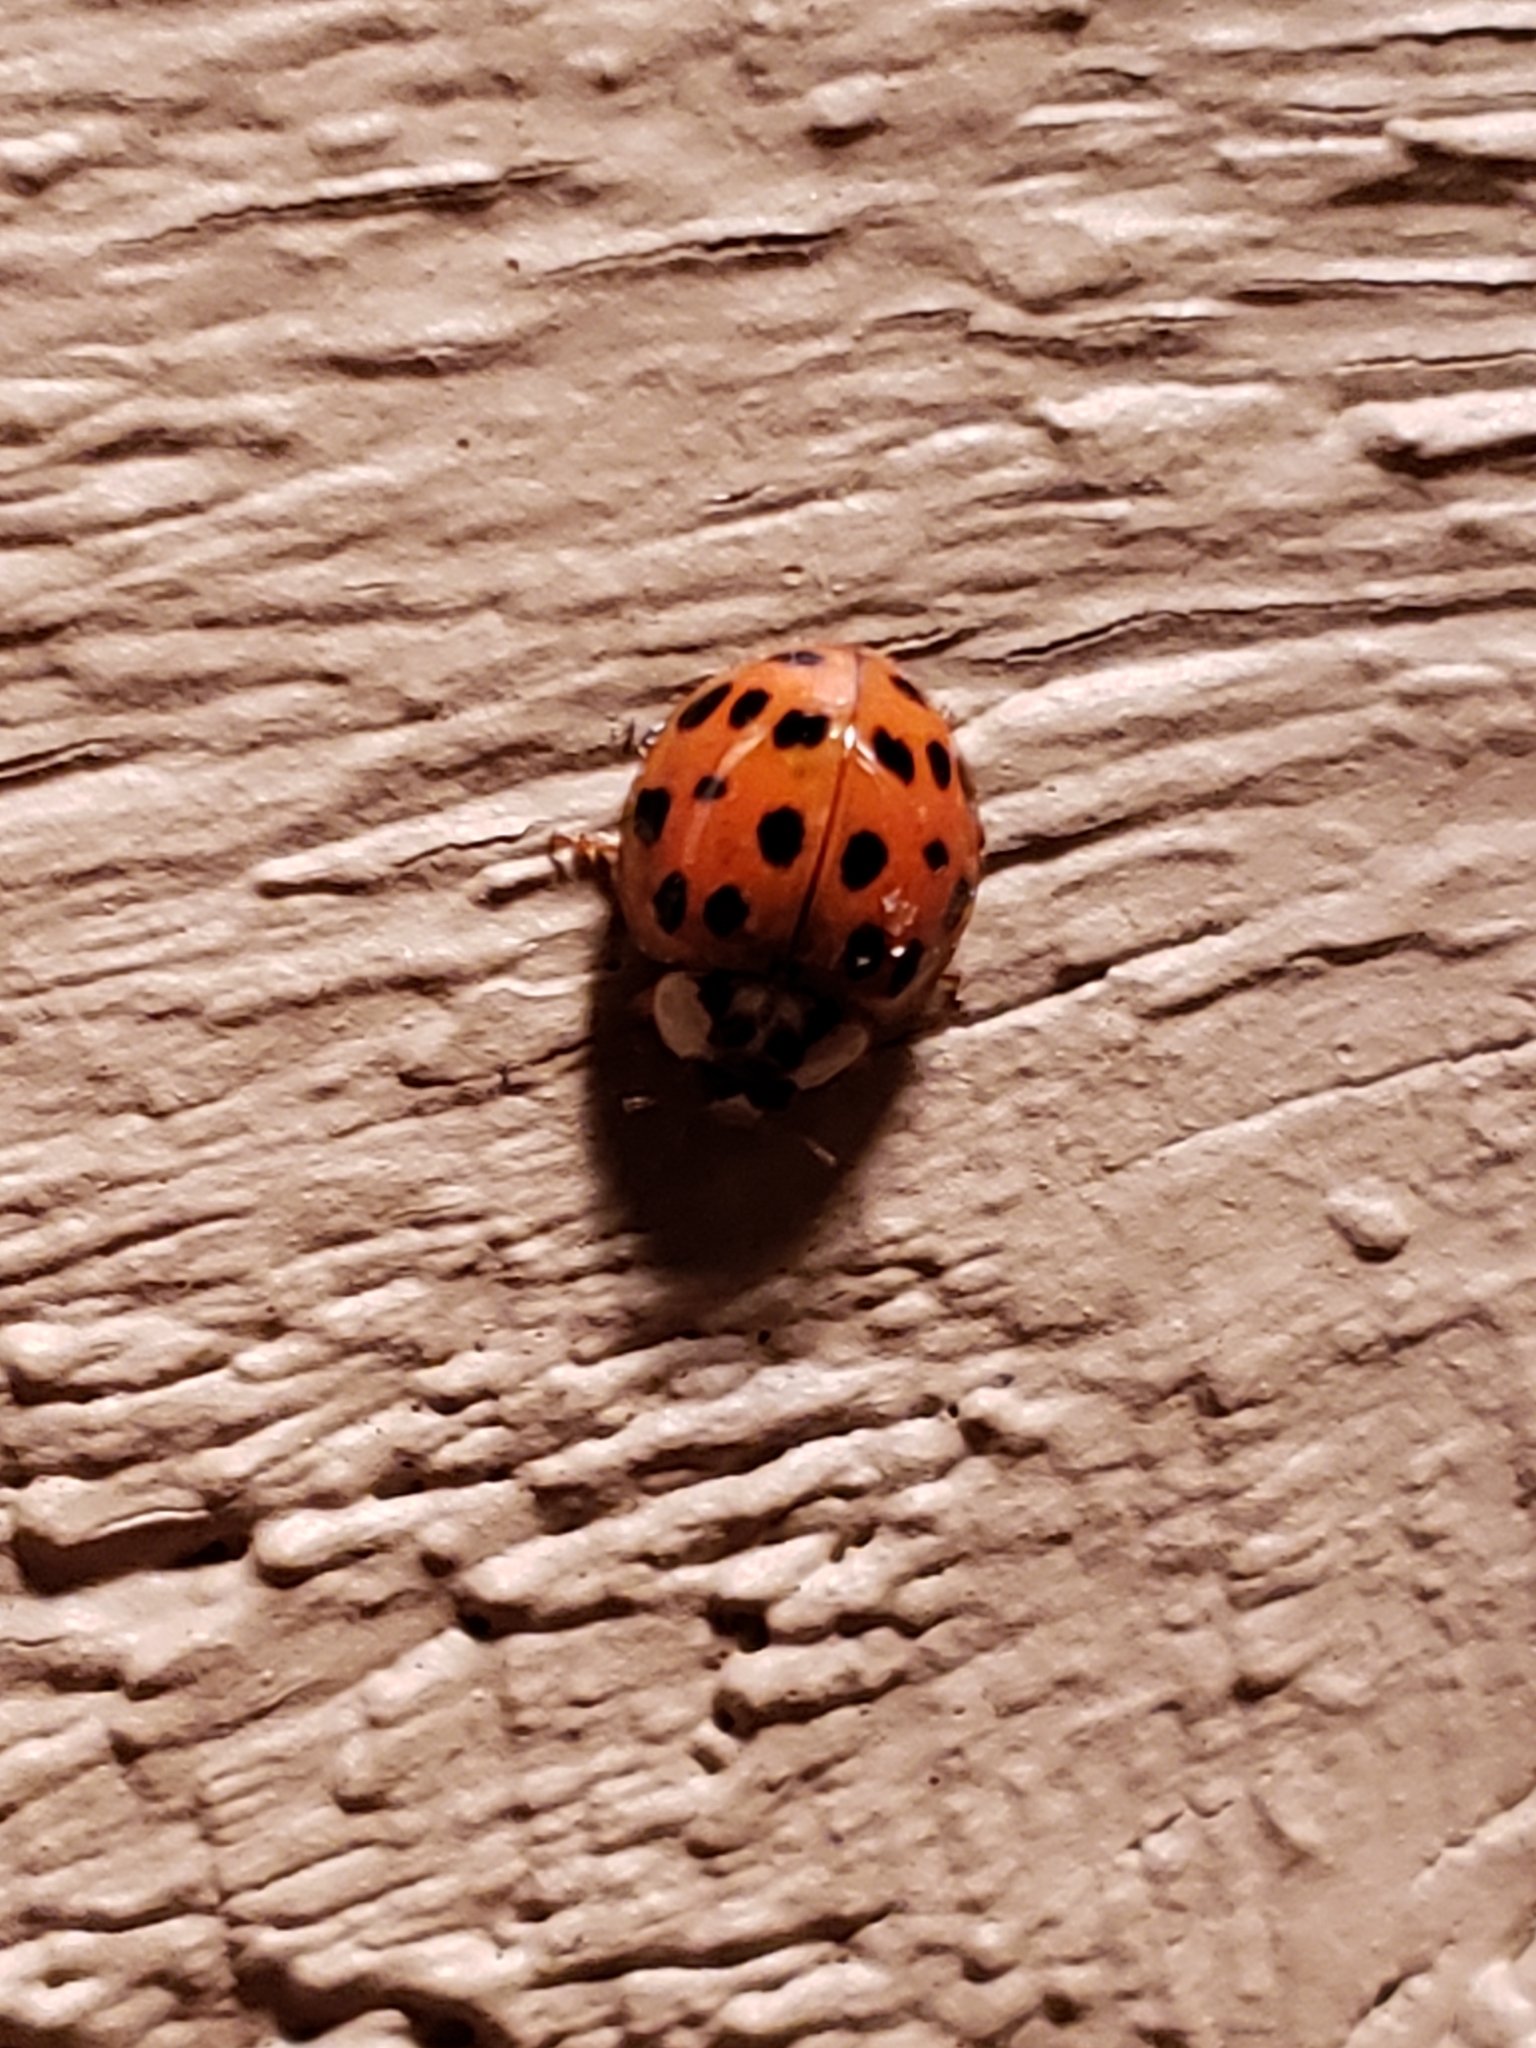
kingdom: Animalia
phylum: Arthropoda
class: Insecta
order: Coleoptera
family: Coccinellidae
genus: Harmonia
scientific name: Harmonia axyridis
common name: Harlequin ladybird
